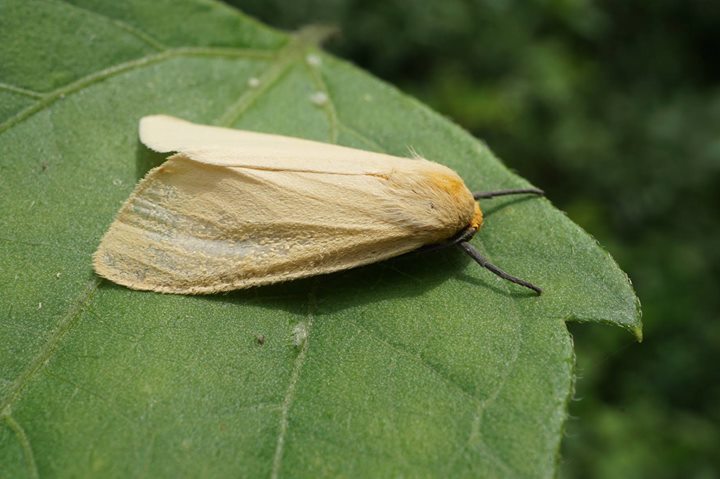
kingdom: Animalia
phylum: Arthropoda
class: Insecta
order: Lepidoptera
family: Erebidae
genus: Pareuchaetes
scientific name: Pareuchaetes insulata
